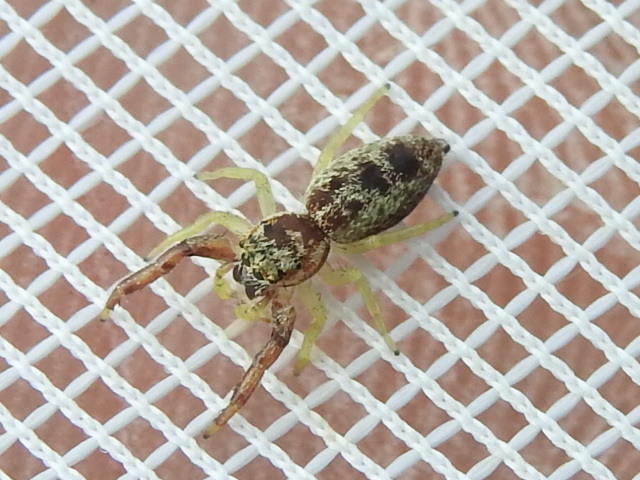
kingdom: Animalia
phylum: Arthropoda
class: Arachnida
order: Araneae
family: Salticidae
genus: Hentzia
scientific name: Hentzia palmarum
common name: Common hentz jumping spider
